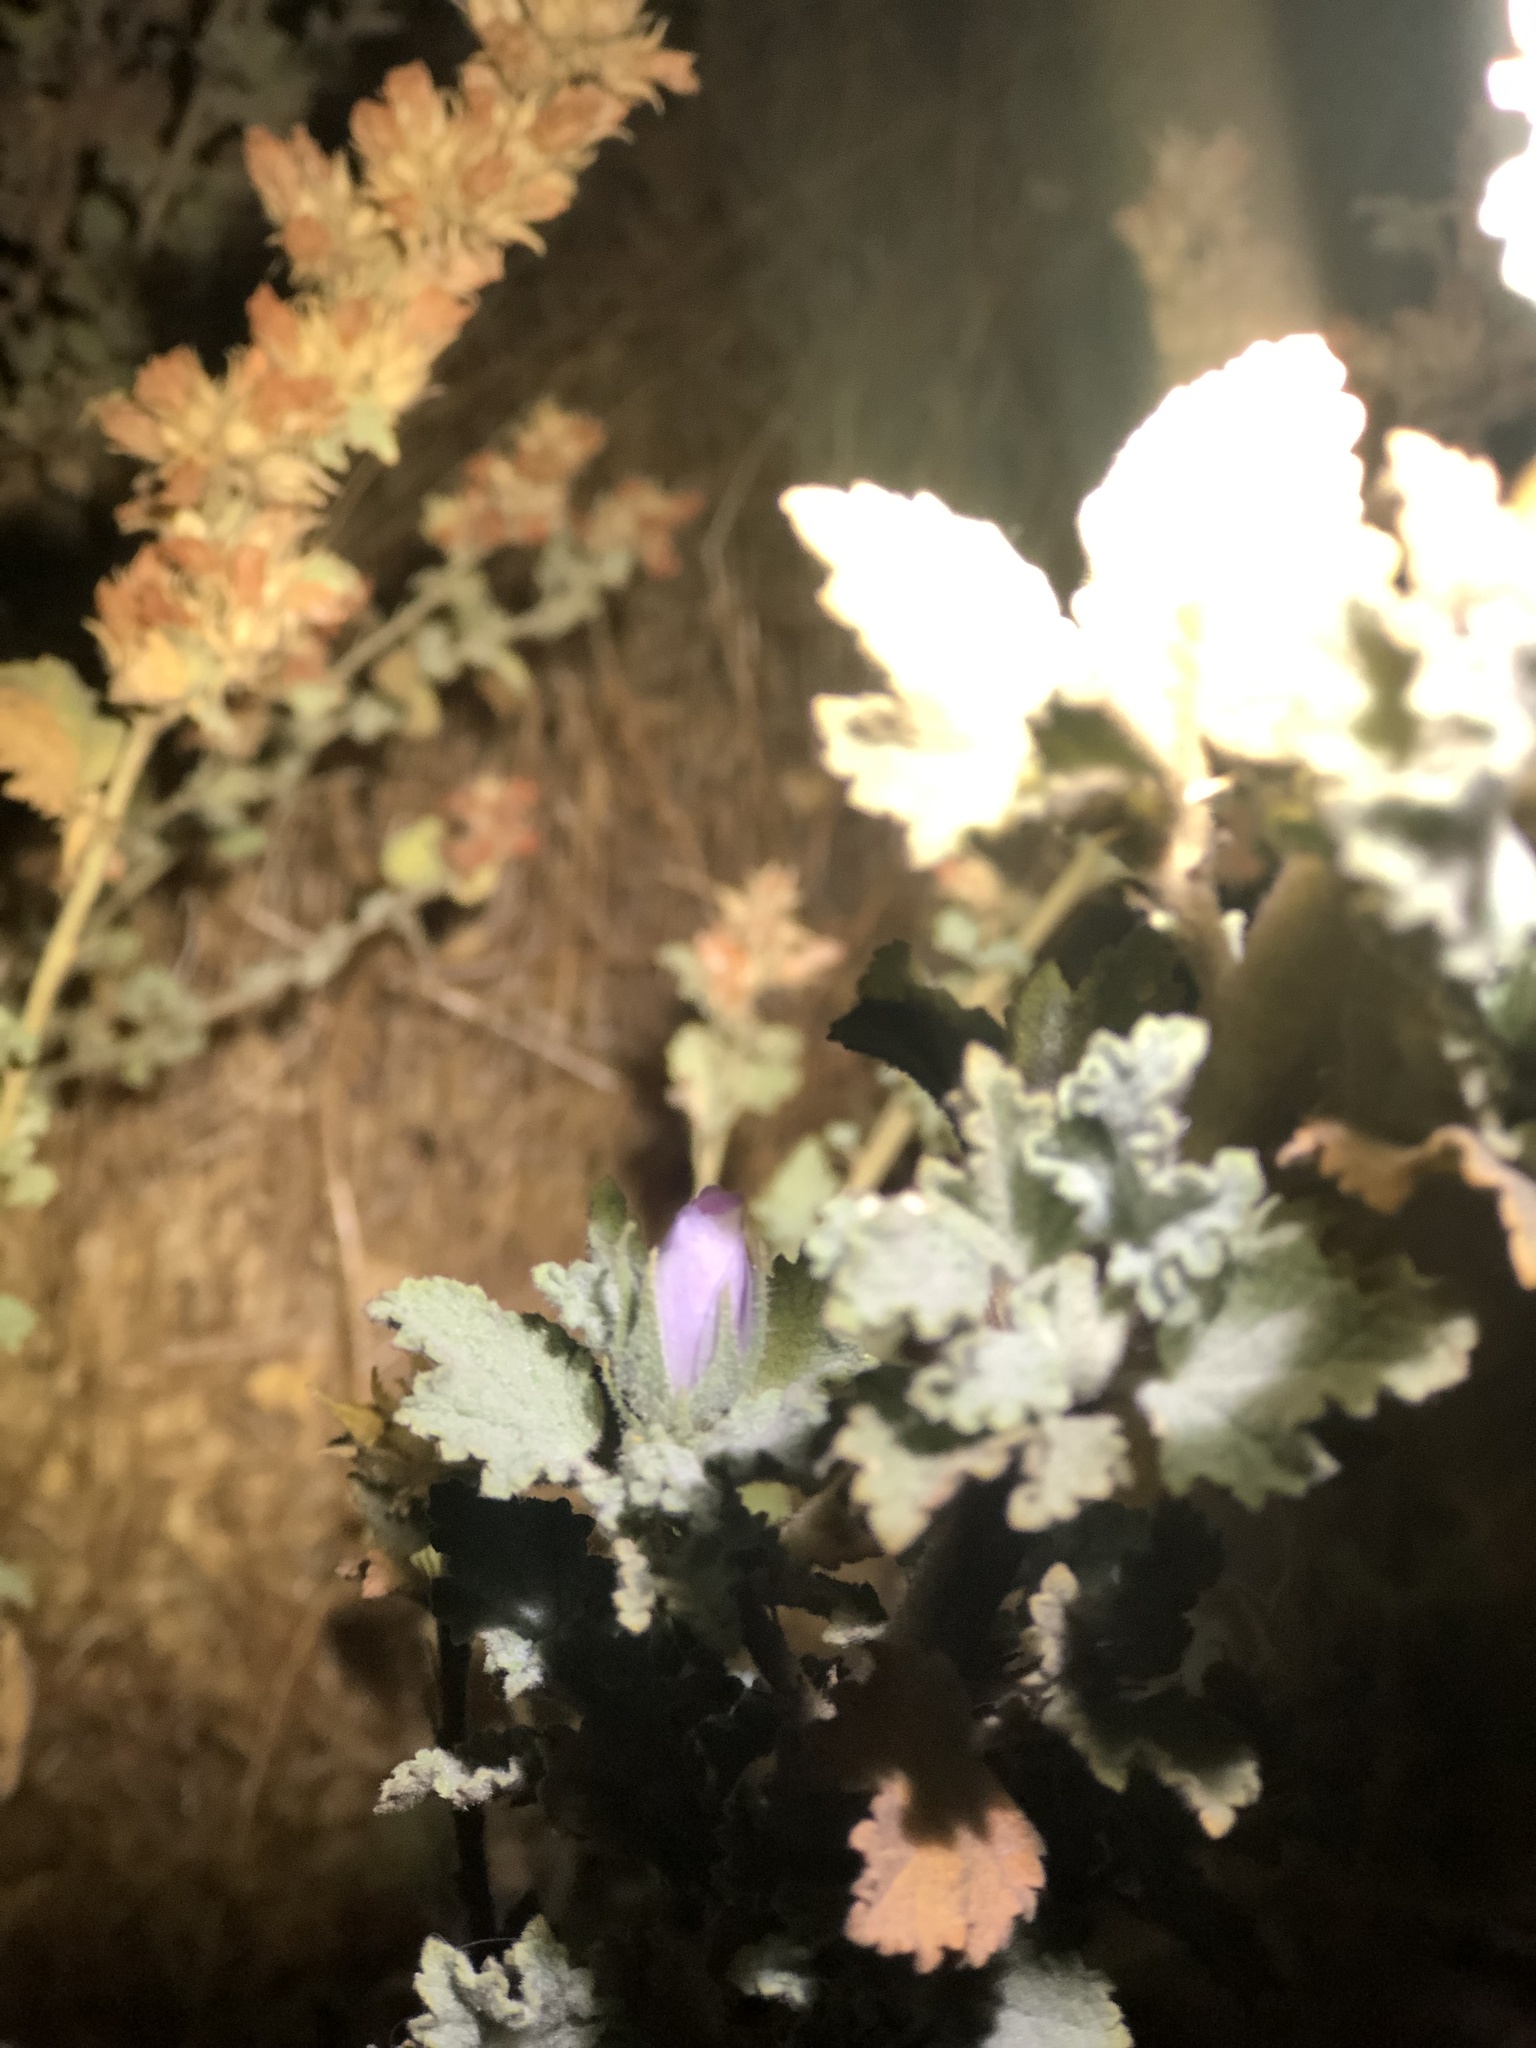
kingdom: Plantae
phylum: Tracheophyta
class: Magnoliopsida
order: Malvales
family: Malvaceae
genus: Malacothamnus
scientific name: Malacothamnus marrubioides
